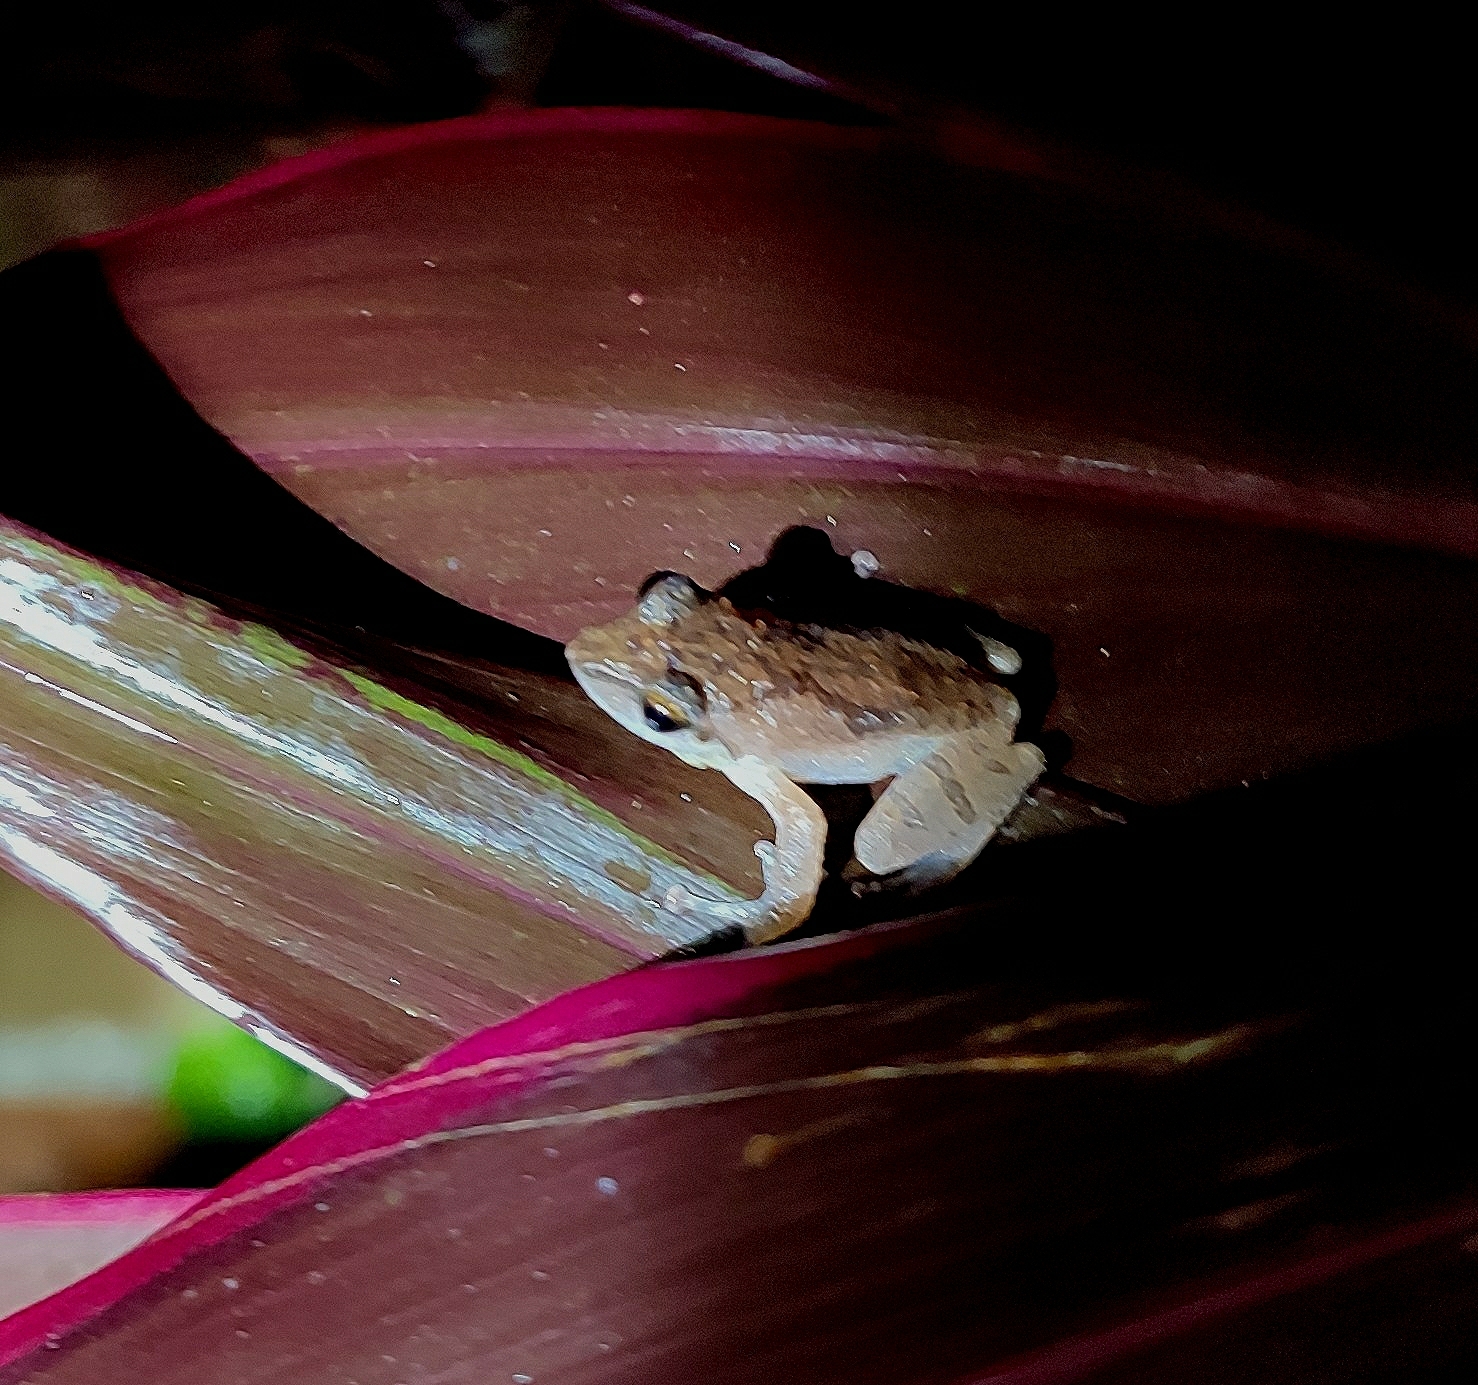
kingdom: Animalia
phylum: Chordata
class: Amphibia
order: Anura
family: Rhacophoridae
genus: Pseudophilautus
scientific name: Pseudophilautus wynaadensis
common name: Dark-eared bush frog
